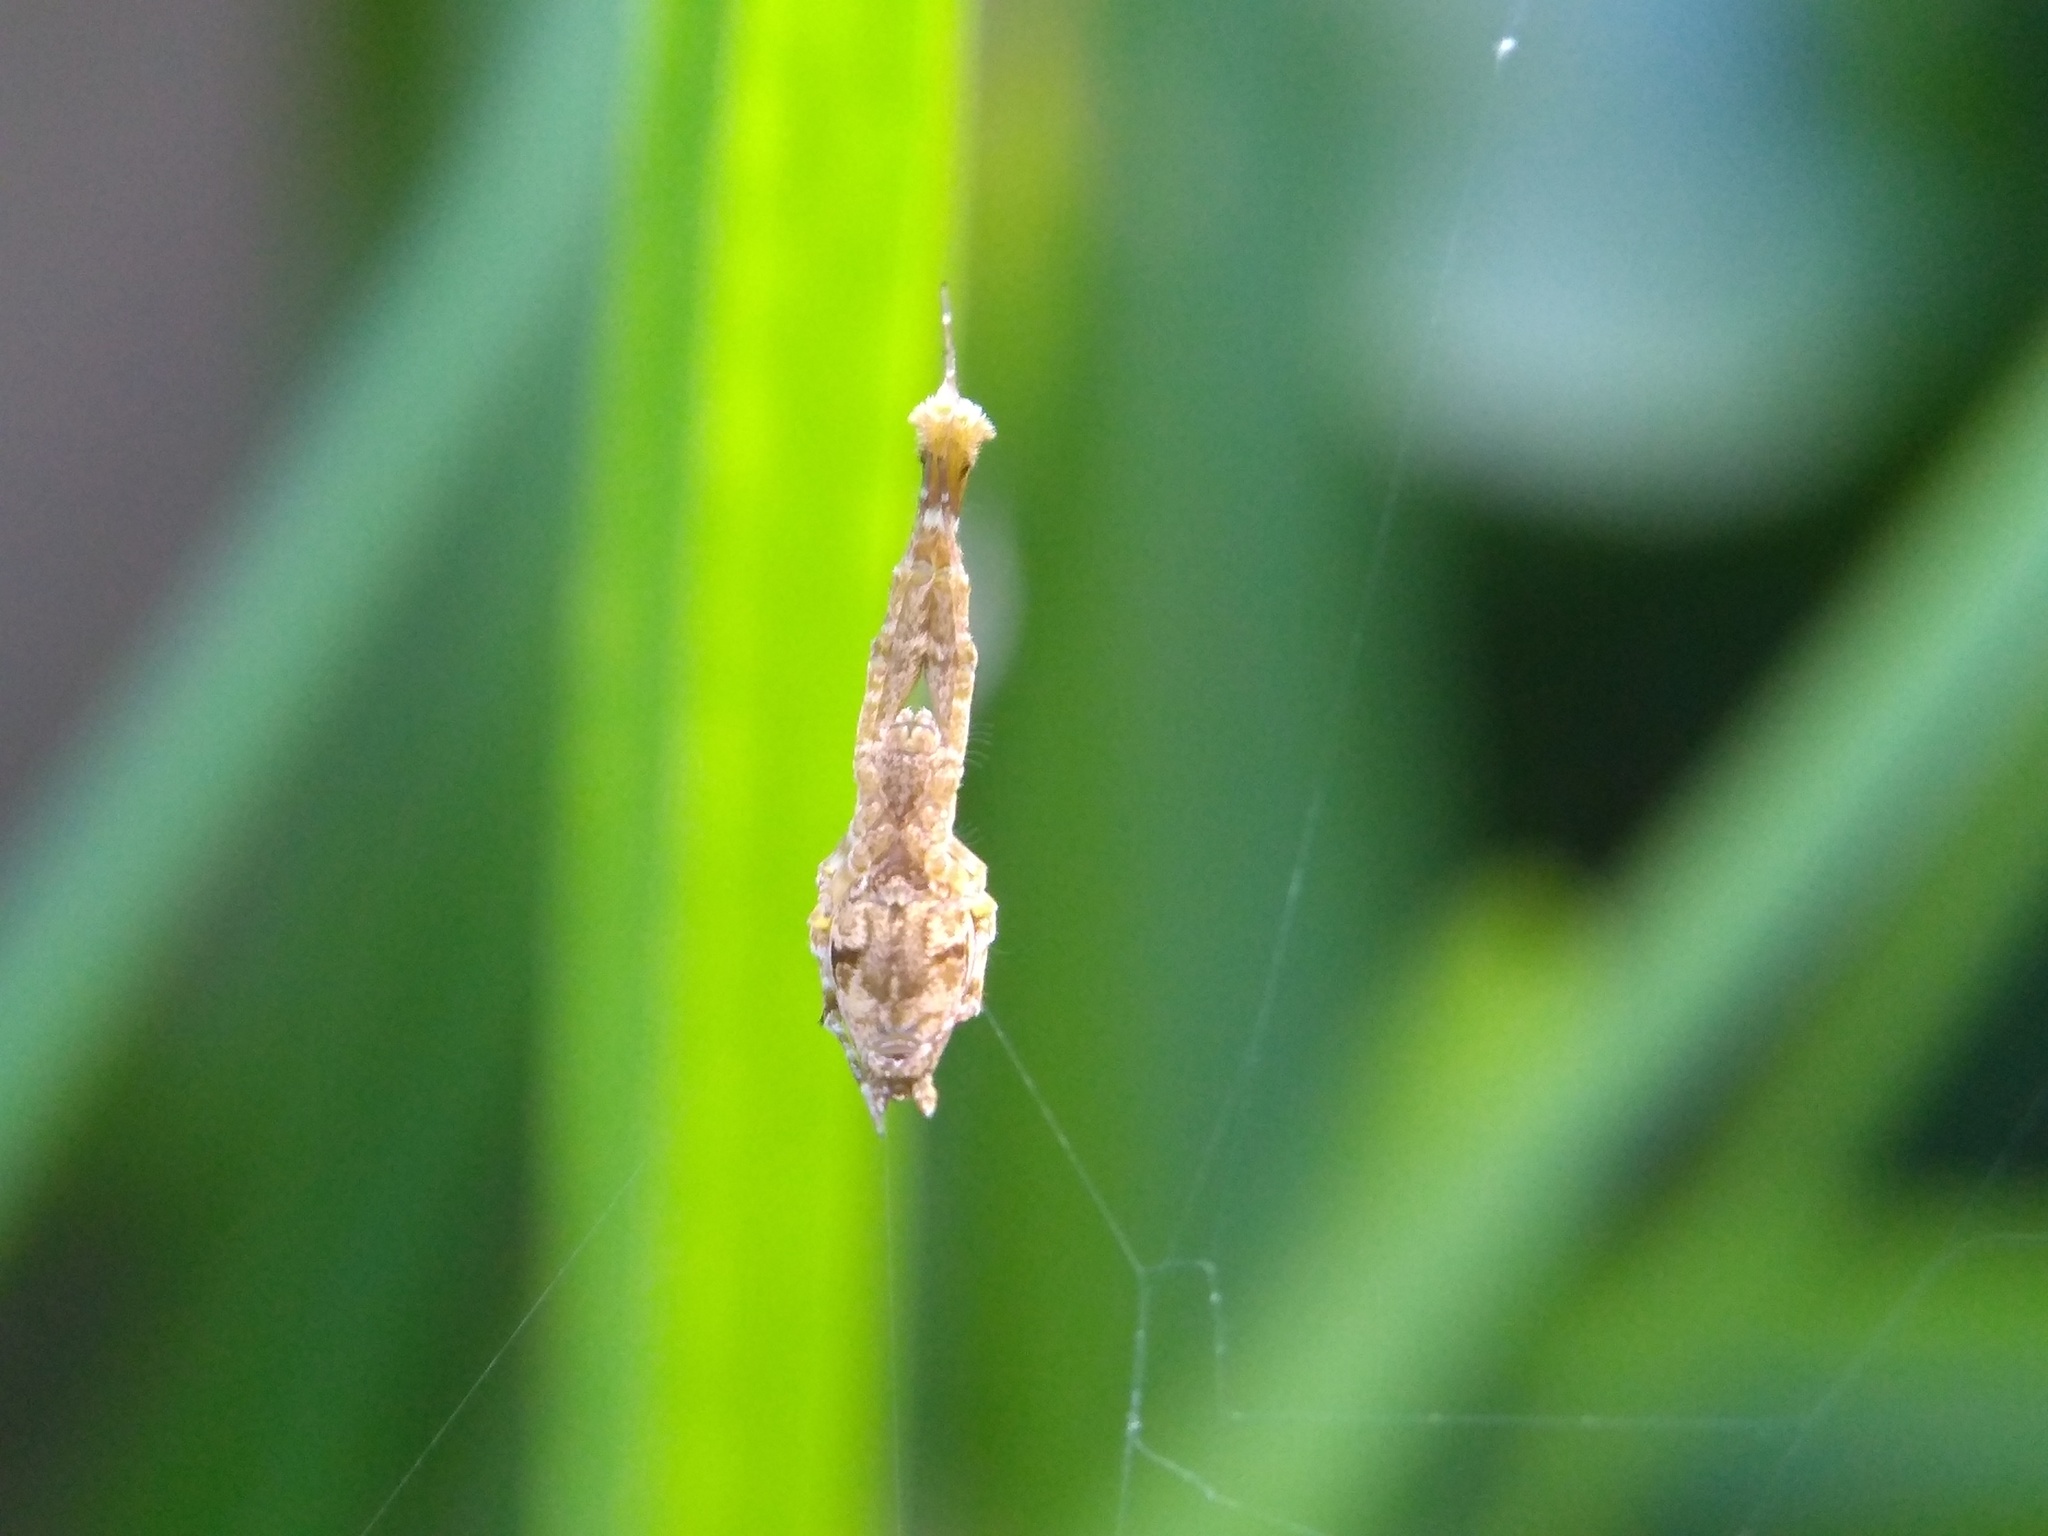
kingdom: Animalia
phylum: Arthropoda
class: Arachnida
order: Araneae
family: Uloboridae
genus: Uloborus
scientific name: Uloborus glomosus
